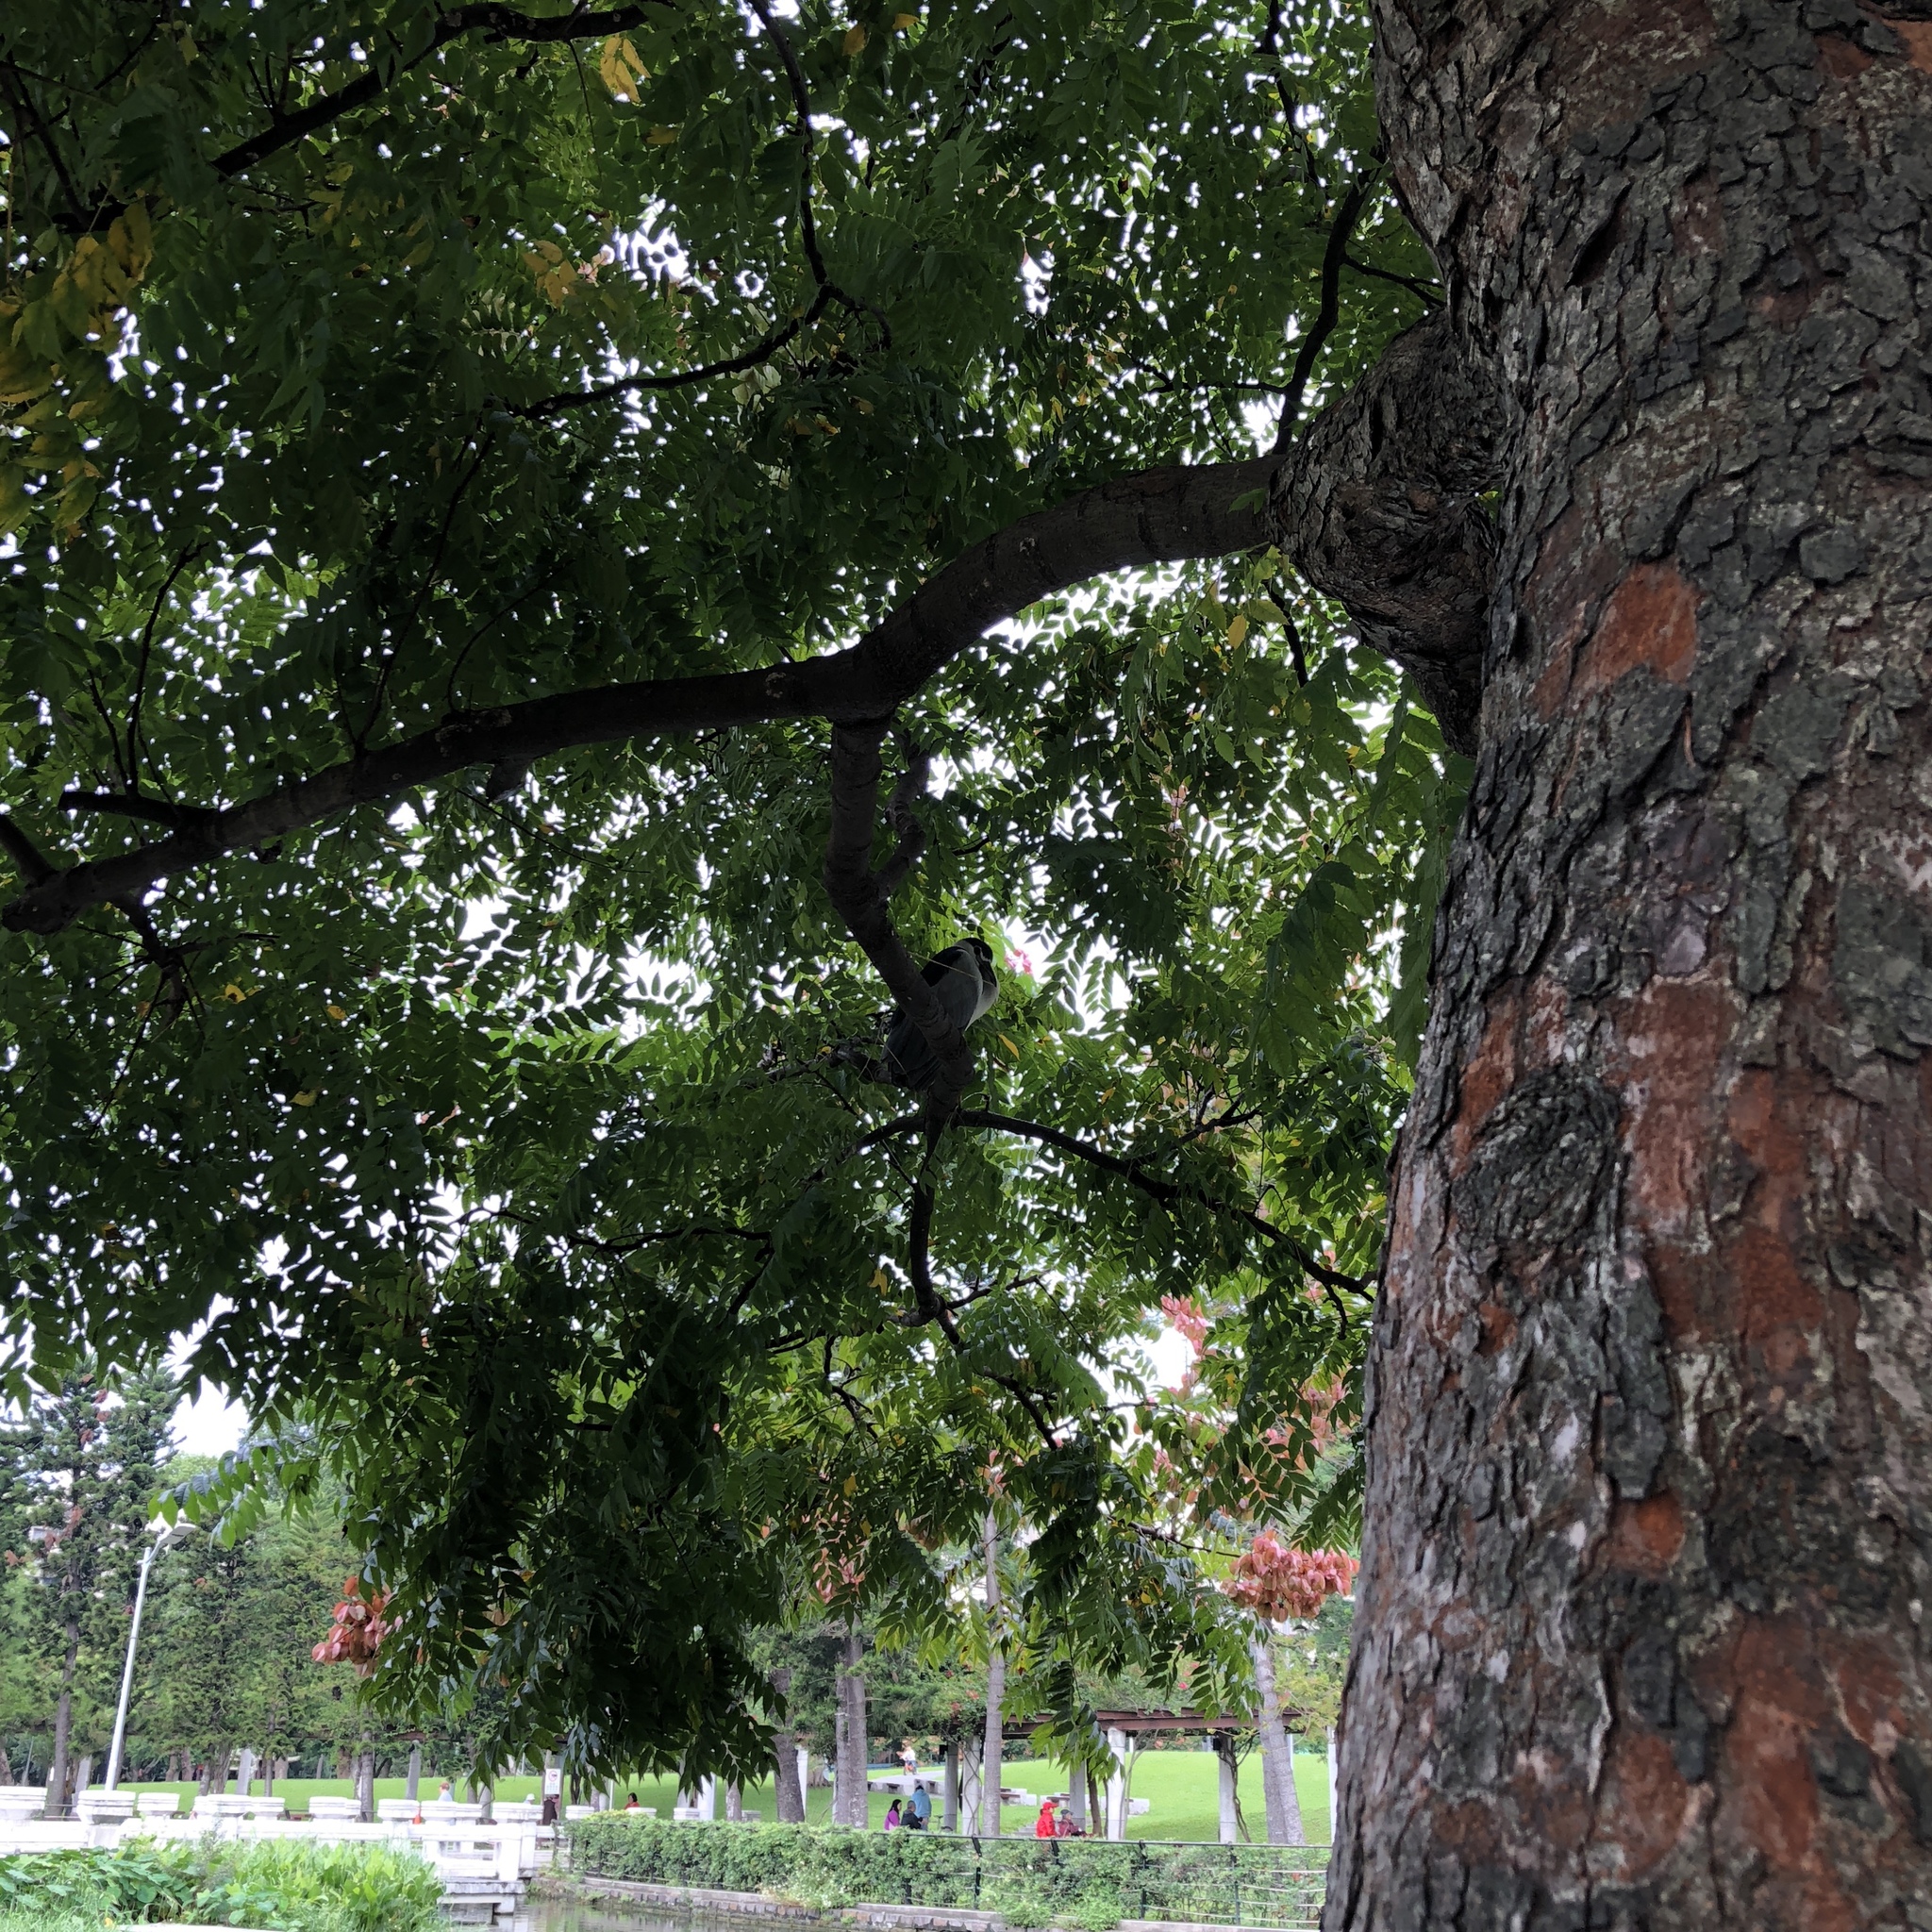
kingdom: Animalia
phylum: Chordata
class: Aves
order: Pelecaniformes
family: Ardeidae
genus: Nycticorax
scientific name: Nycticorax nycticorax
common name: Black-crowned night heron
